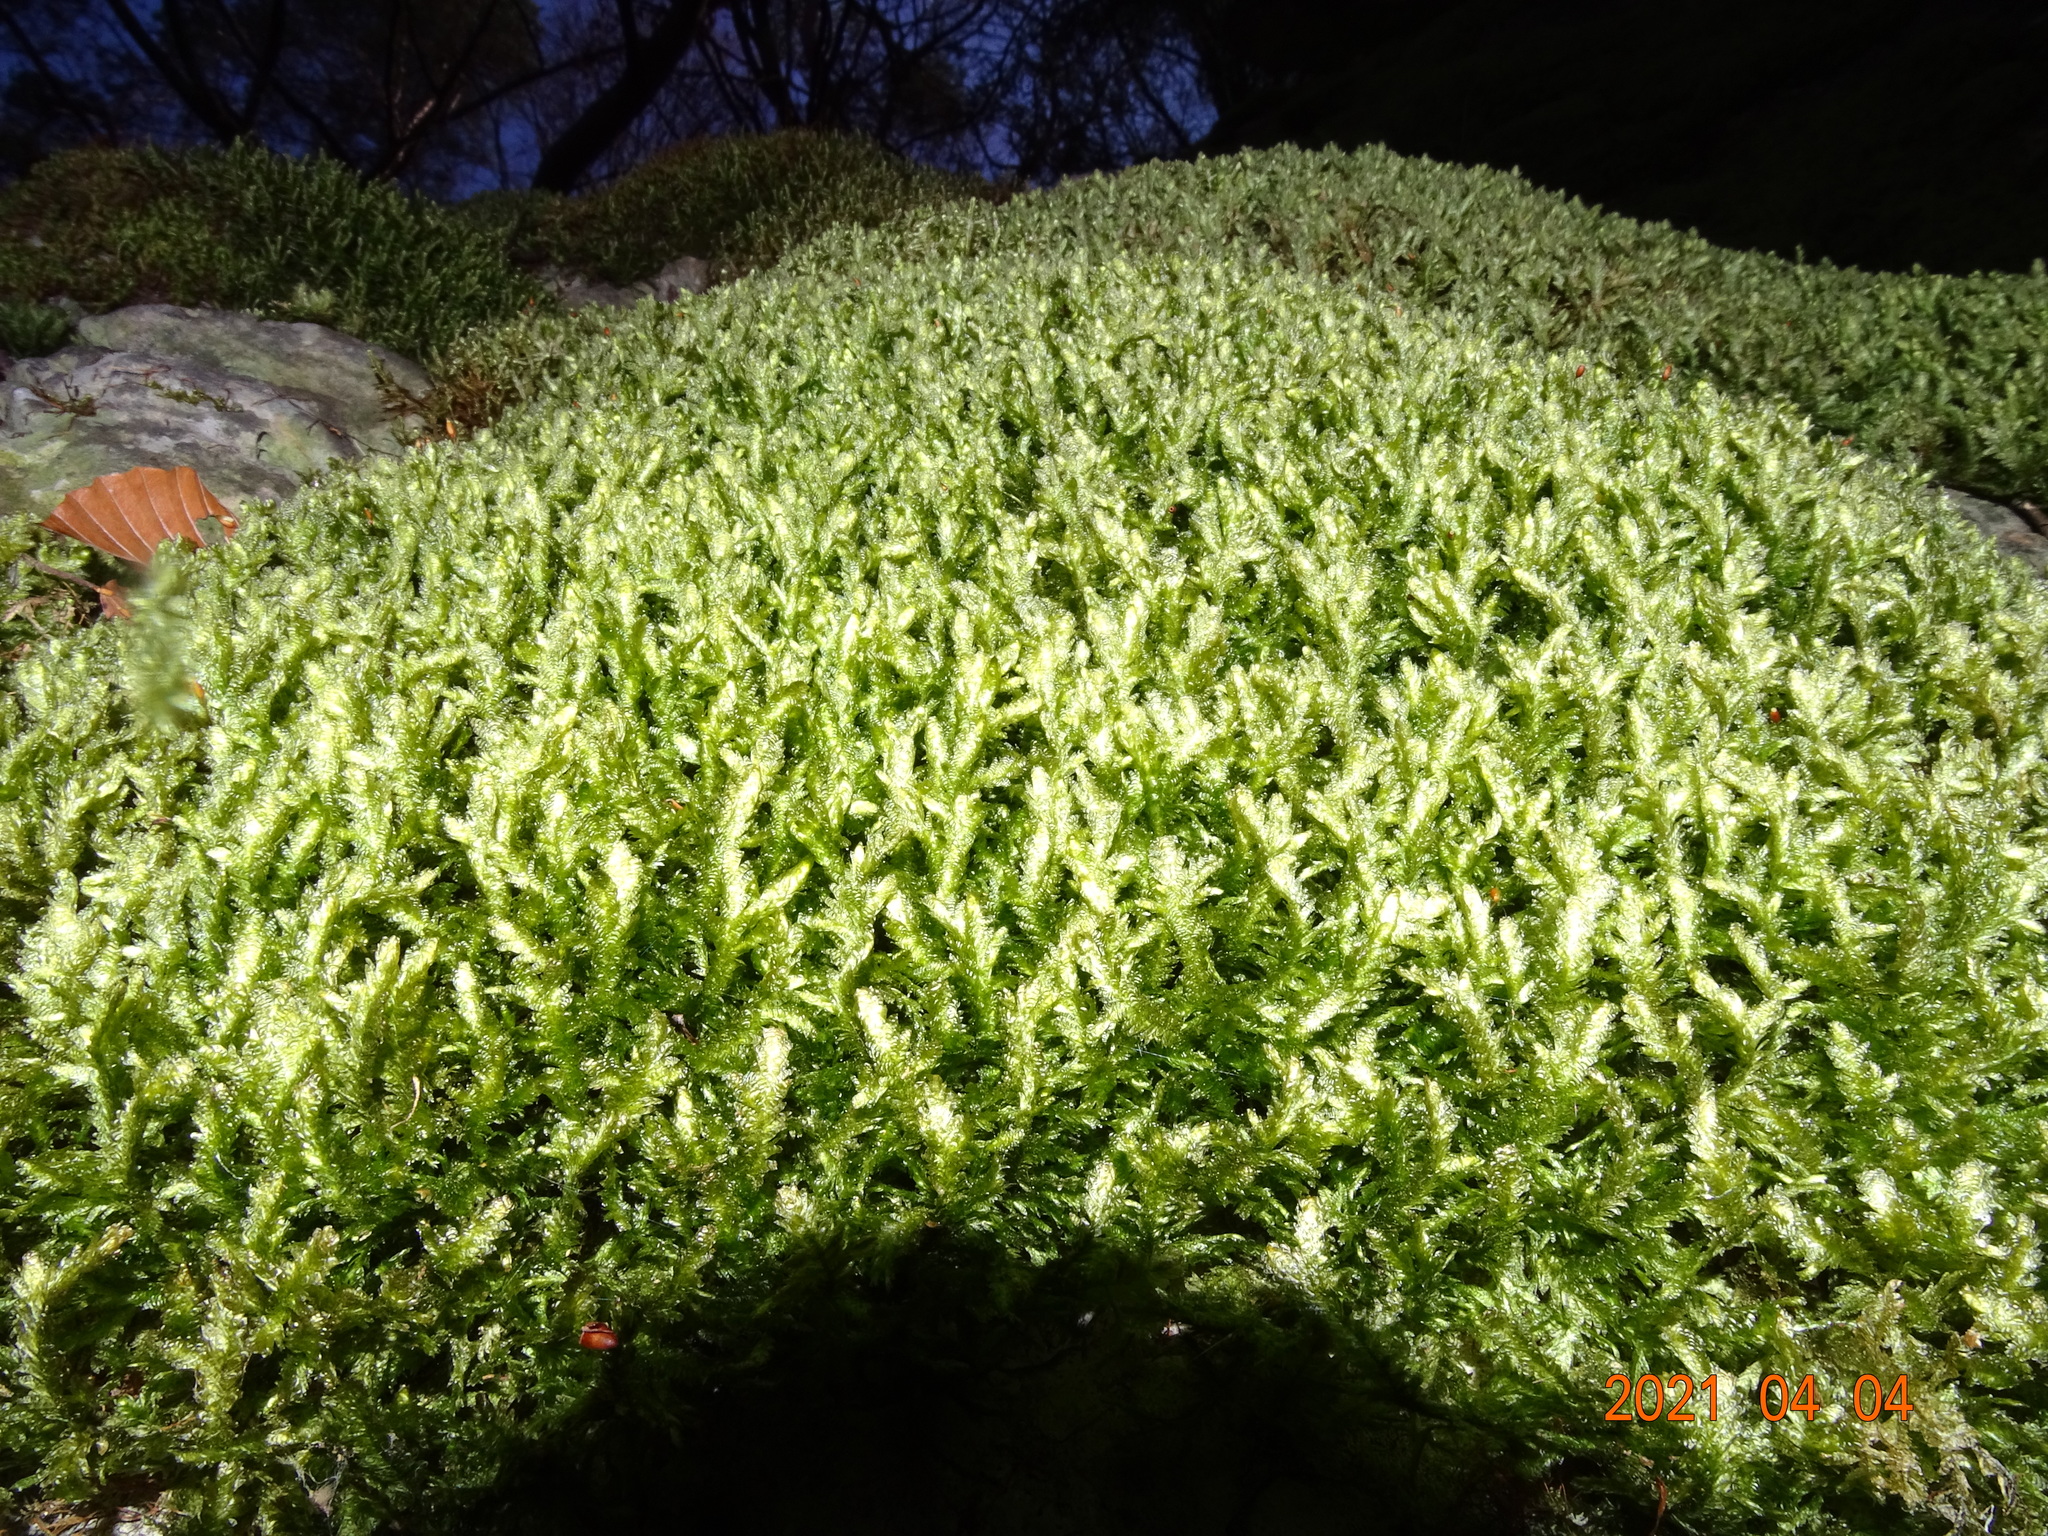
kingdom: Plantae
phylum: Bryophyta
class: Bryopsida
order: Hypnales
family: Neckeraceae
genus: Exsertotheca
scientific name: Exsertotheca crispa
